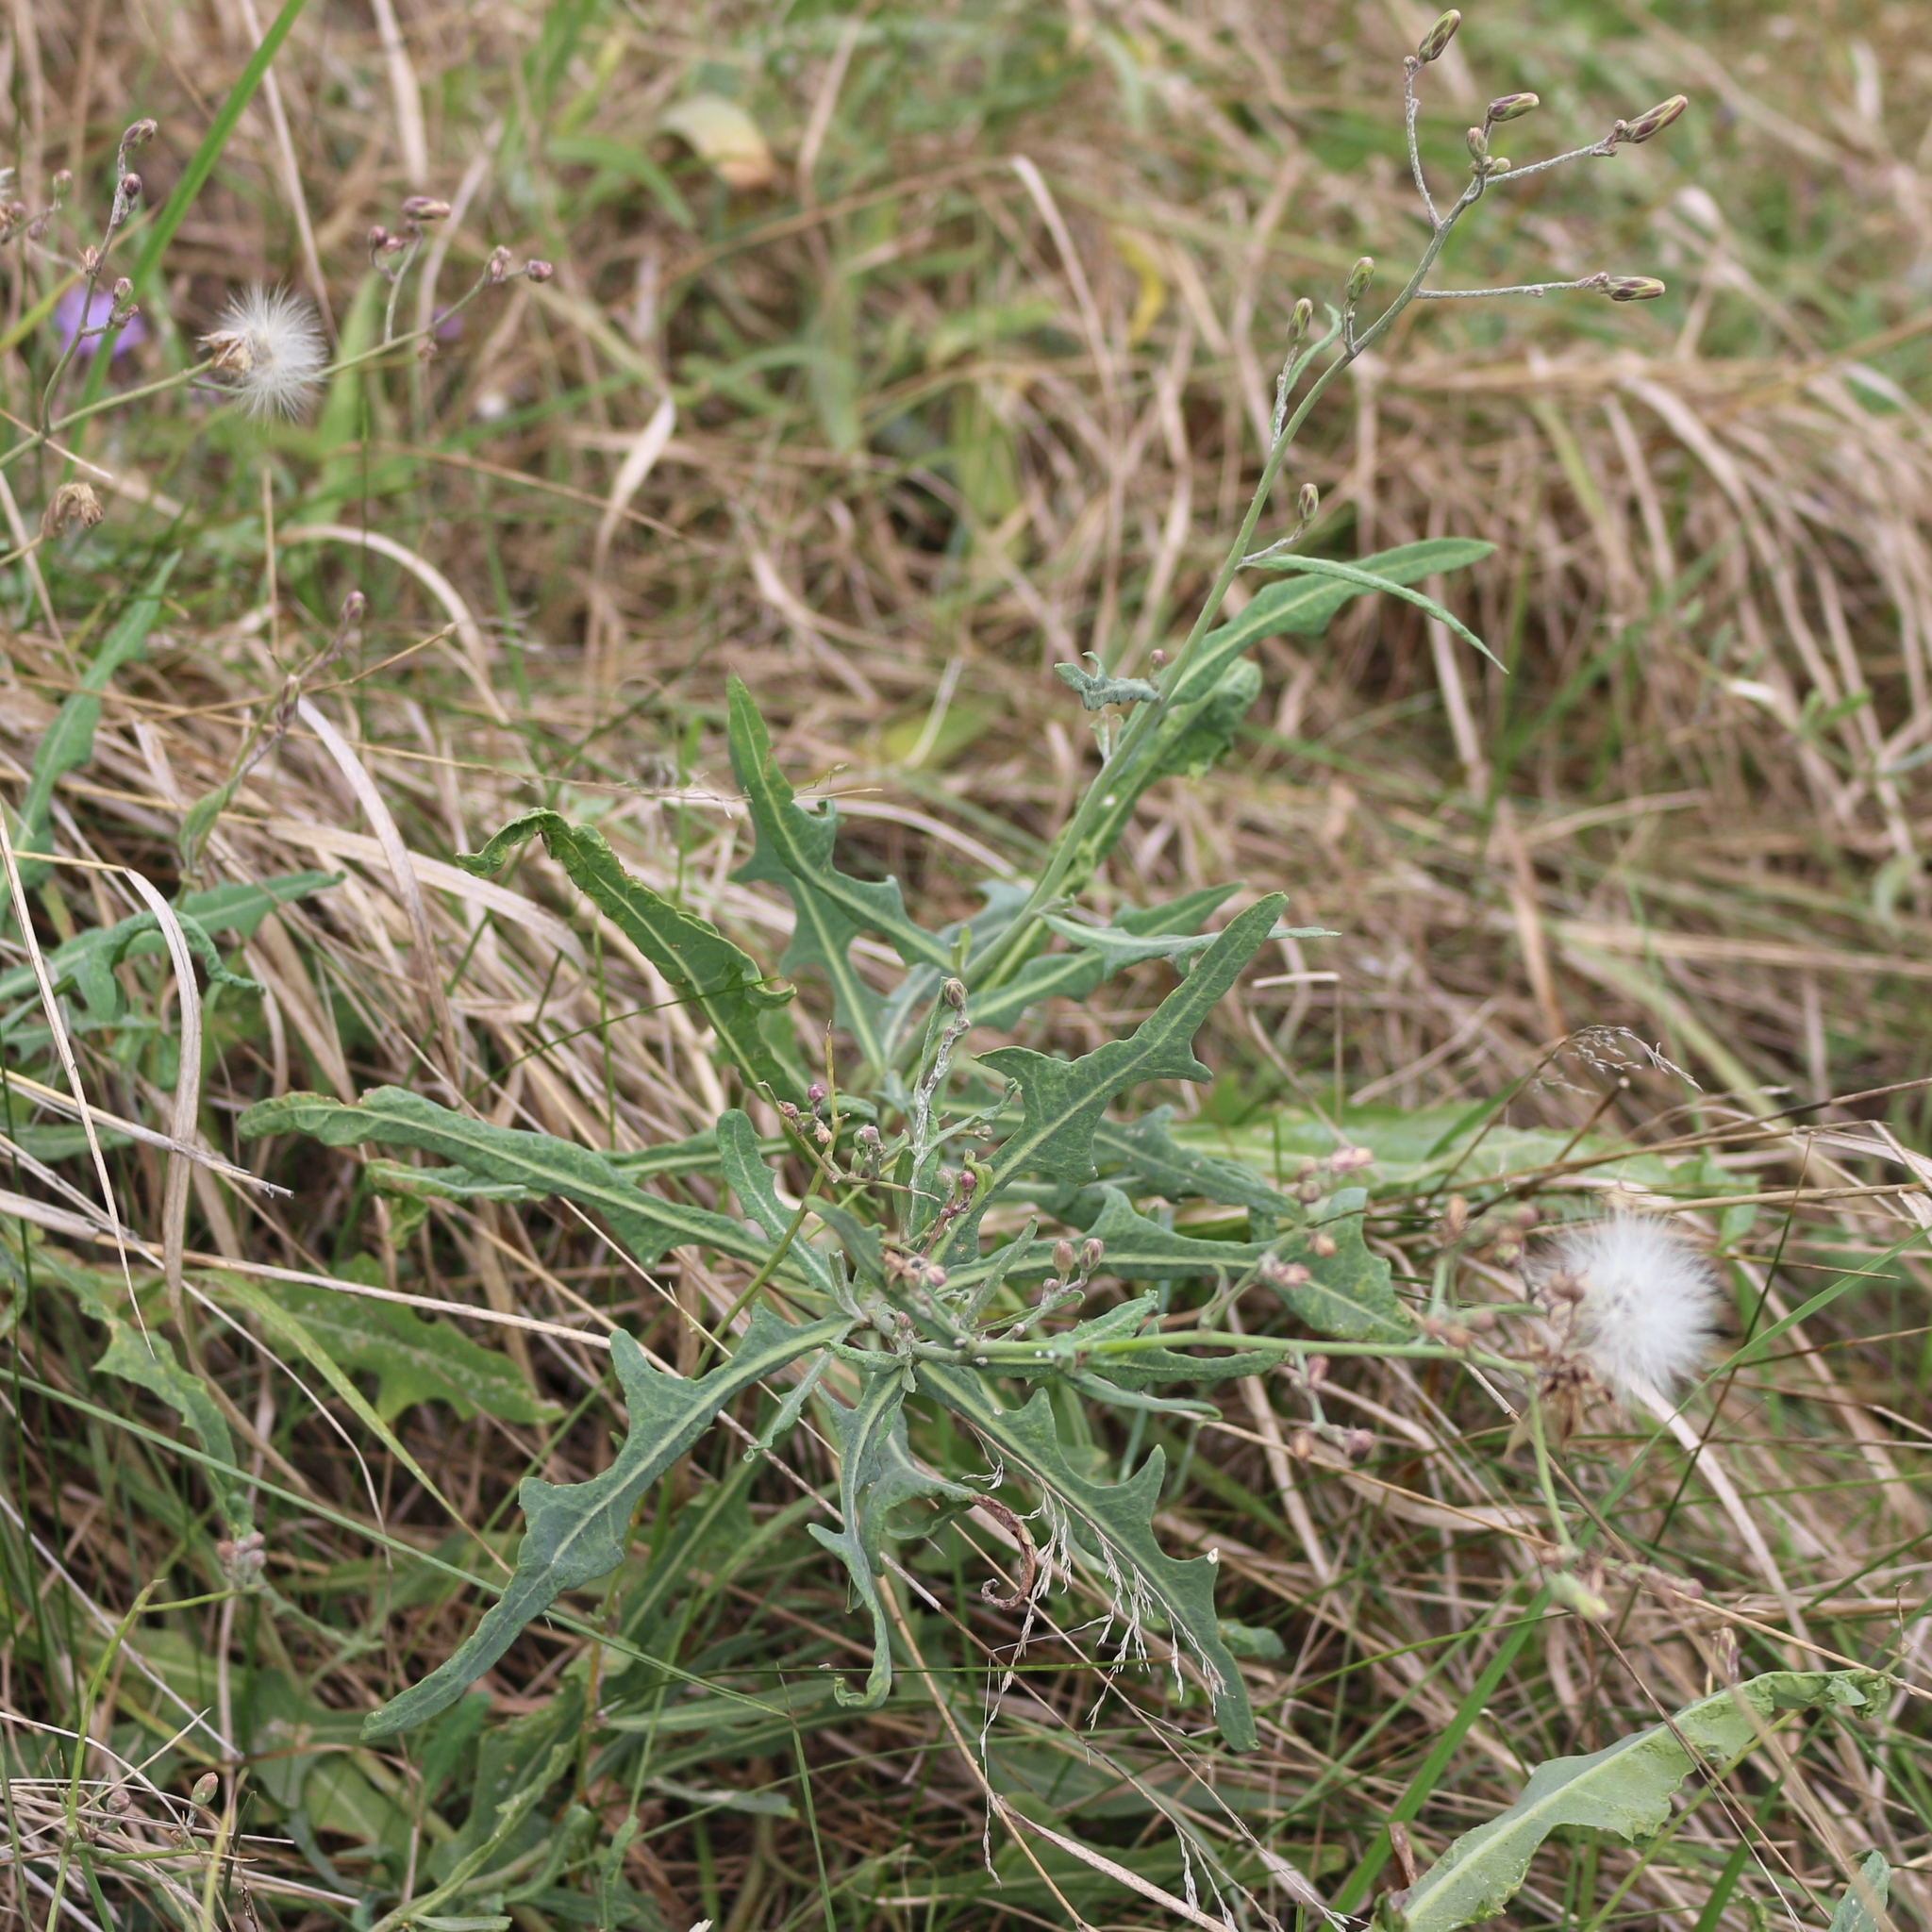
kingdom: Plantae
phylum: Tracheophyta
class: Magnoliopsida
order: Asterales
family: Asteraceae
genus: Lactuca
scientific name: Lactuca tatarica
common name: Blue lettuce
